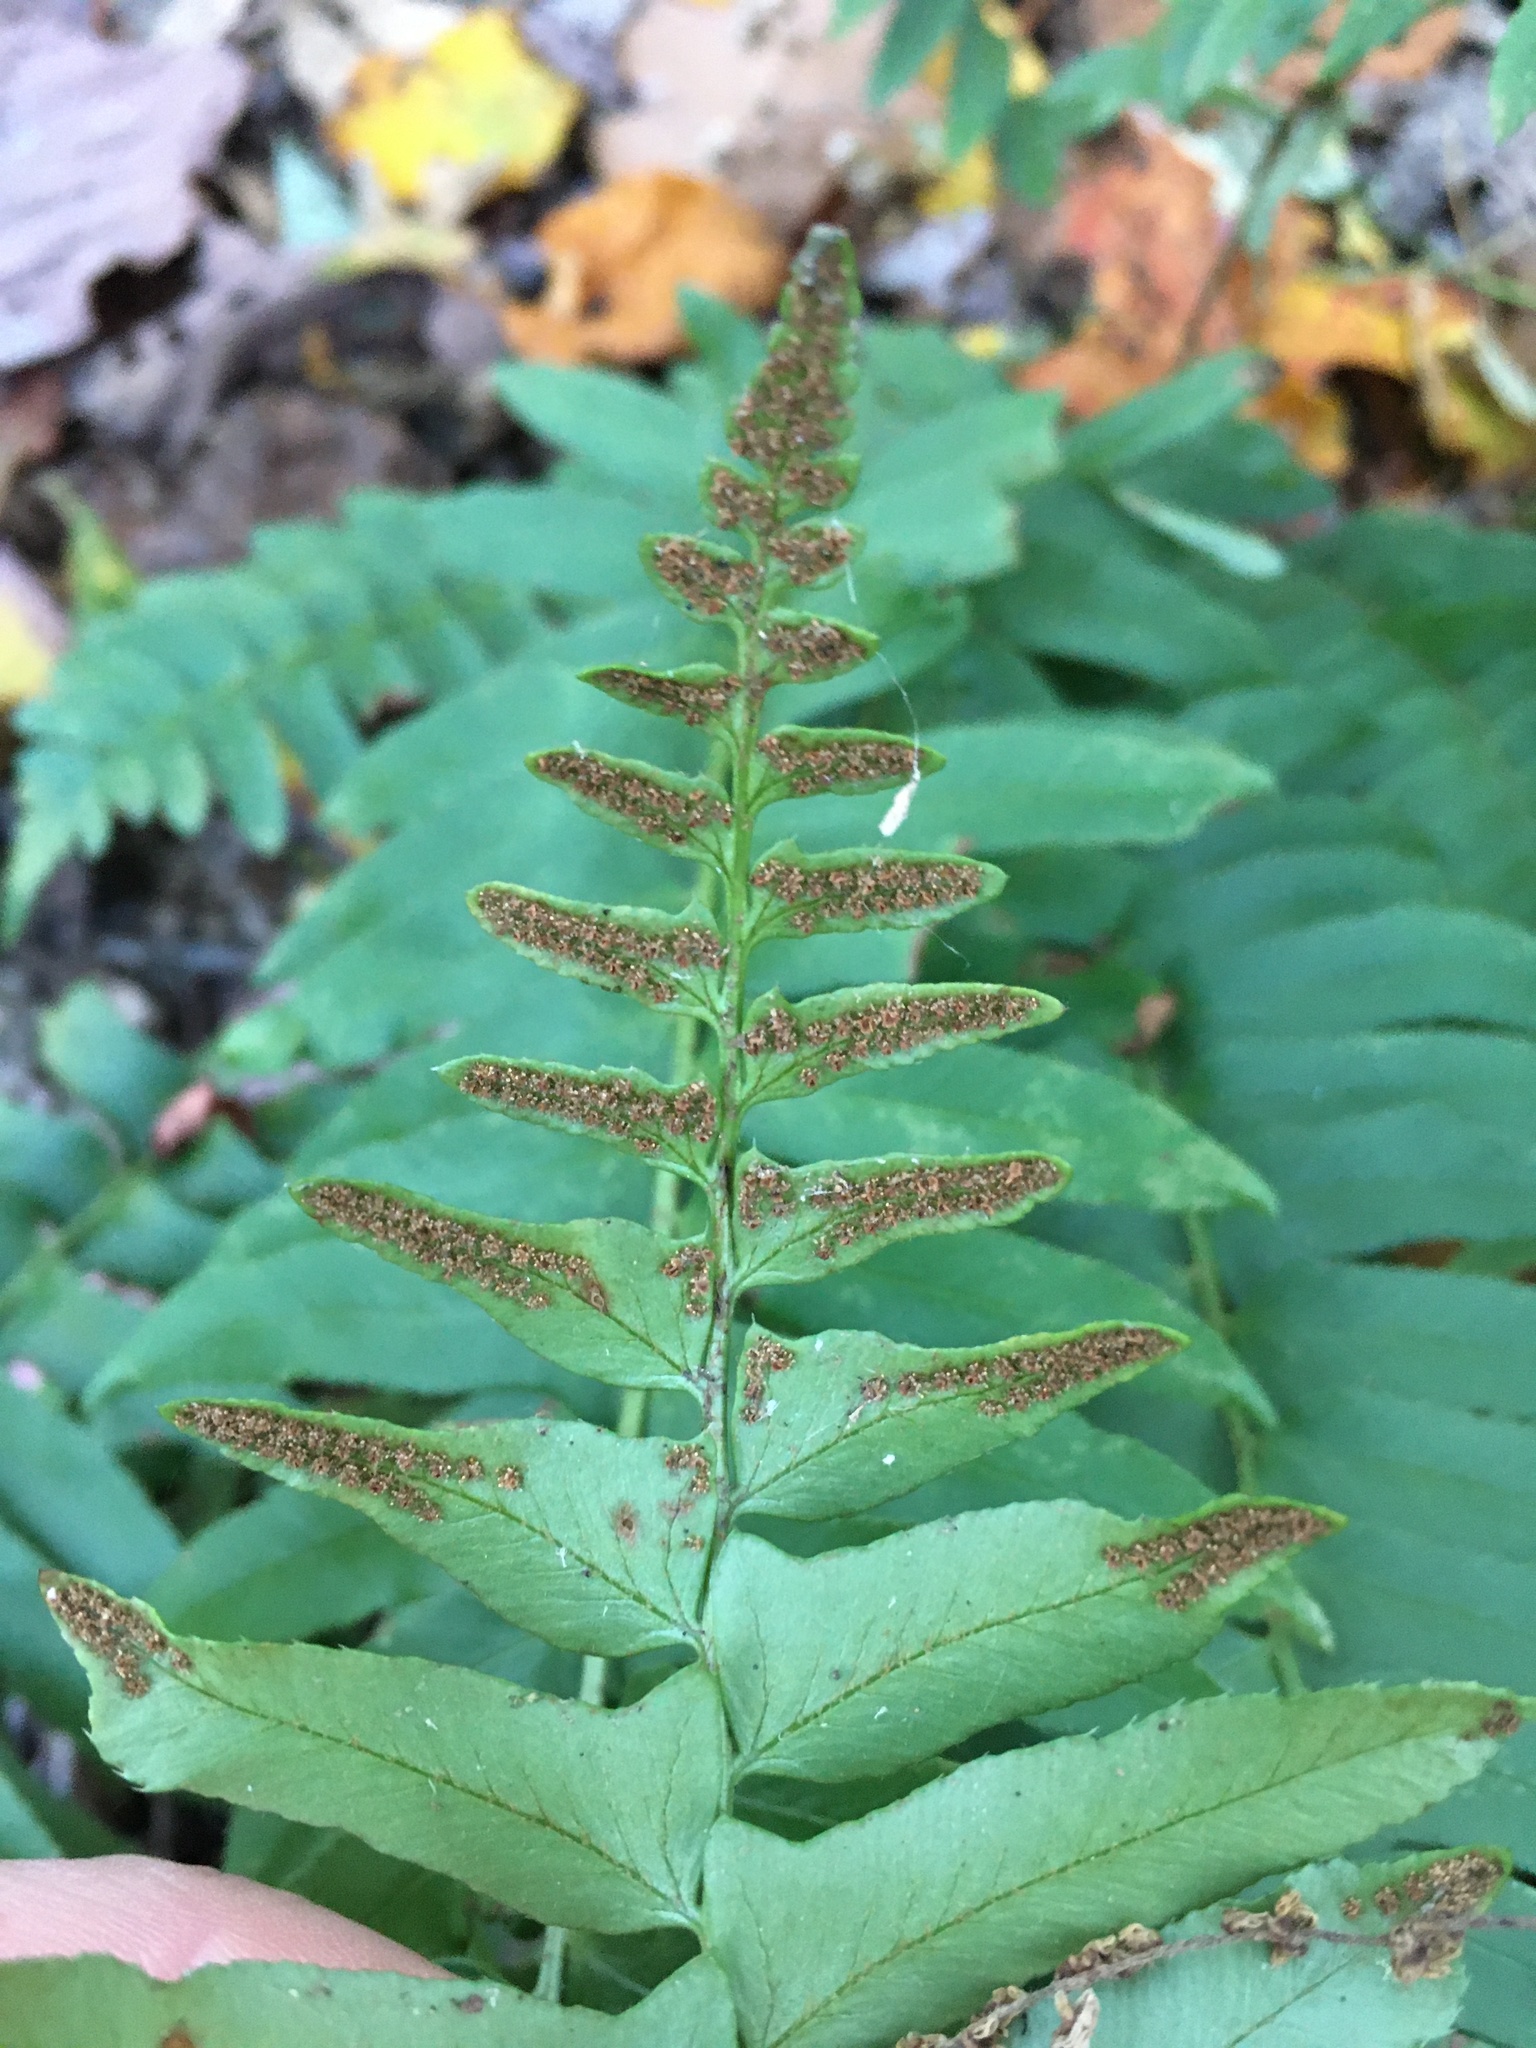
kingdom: Plantae
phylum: Tracheophyta
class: Polypodiopsida
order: Polypodiales
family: Dryopteridaceae
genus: Polystichum
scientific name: Polystichum acrostichoides
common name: Christmas fern
